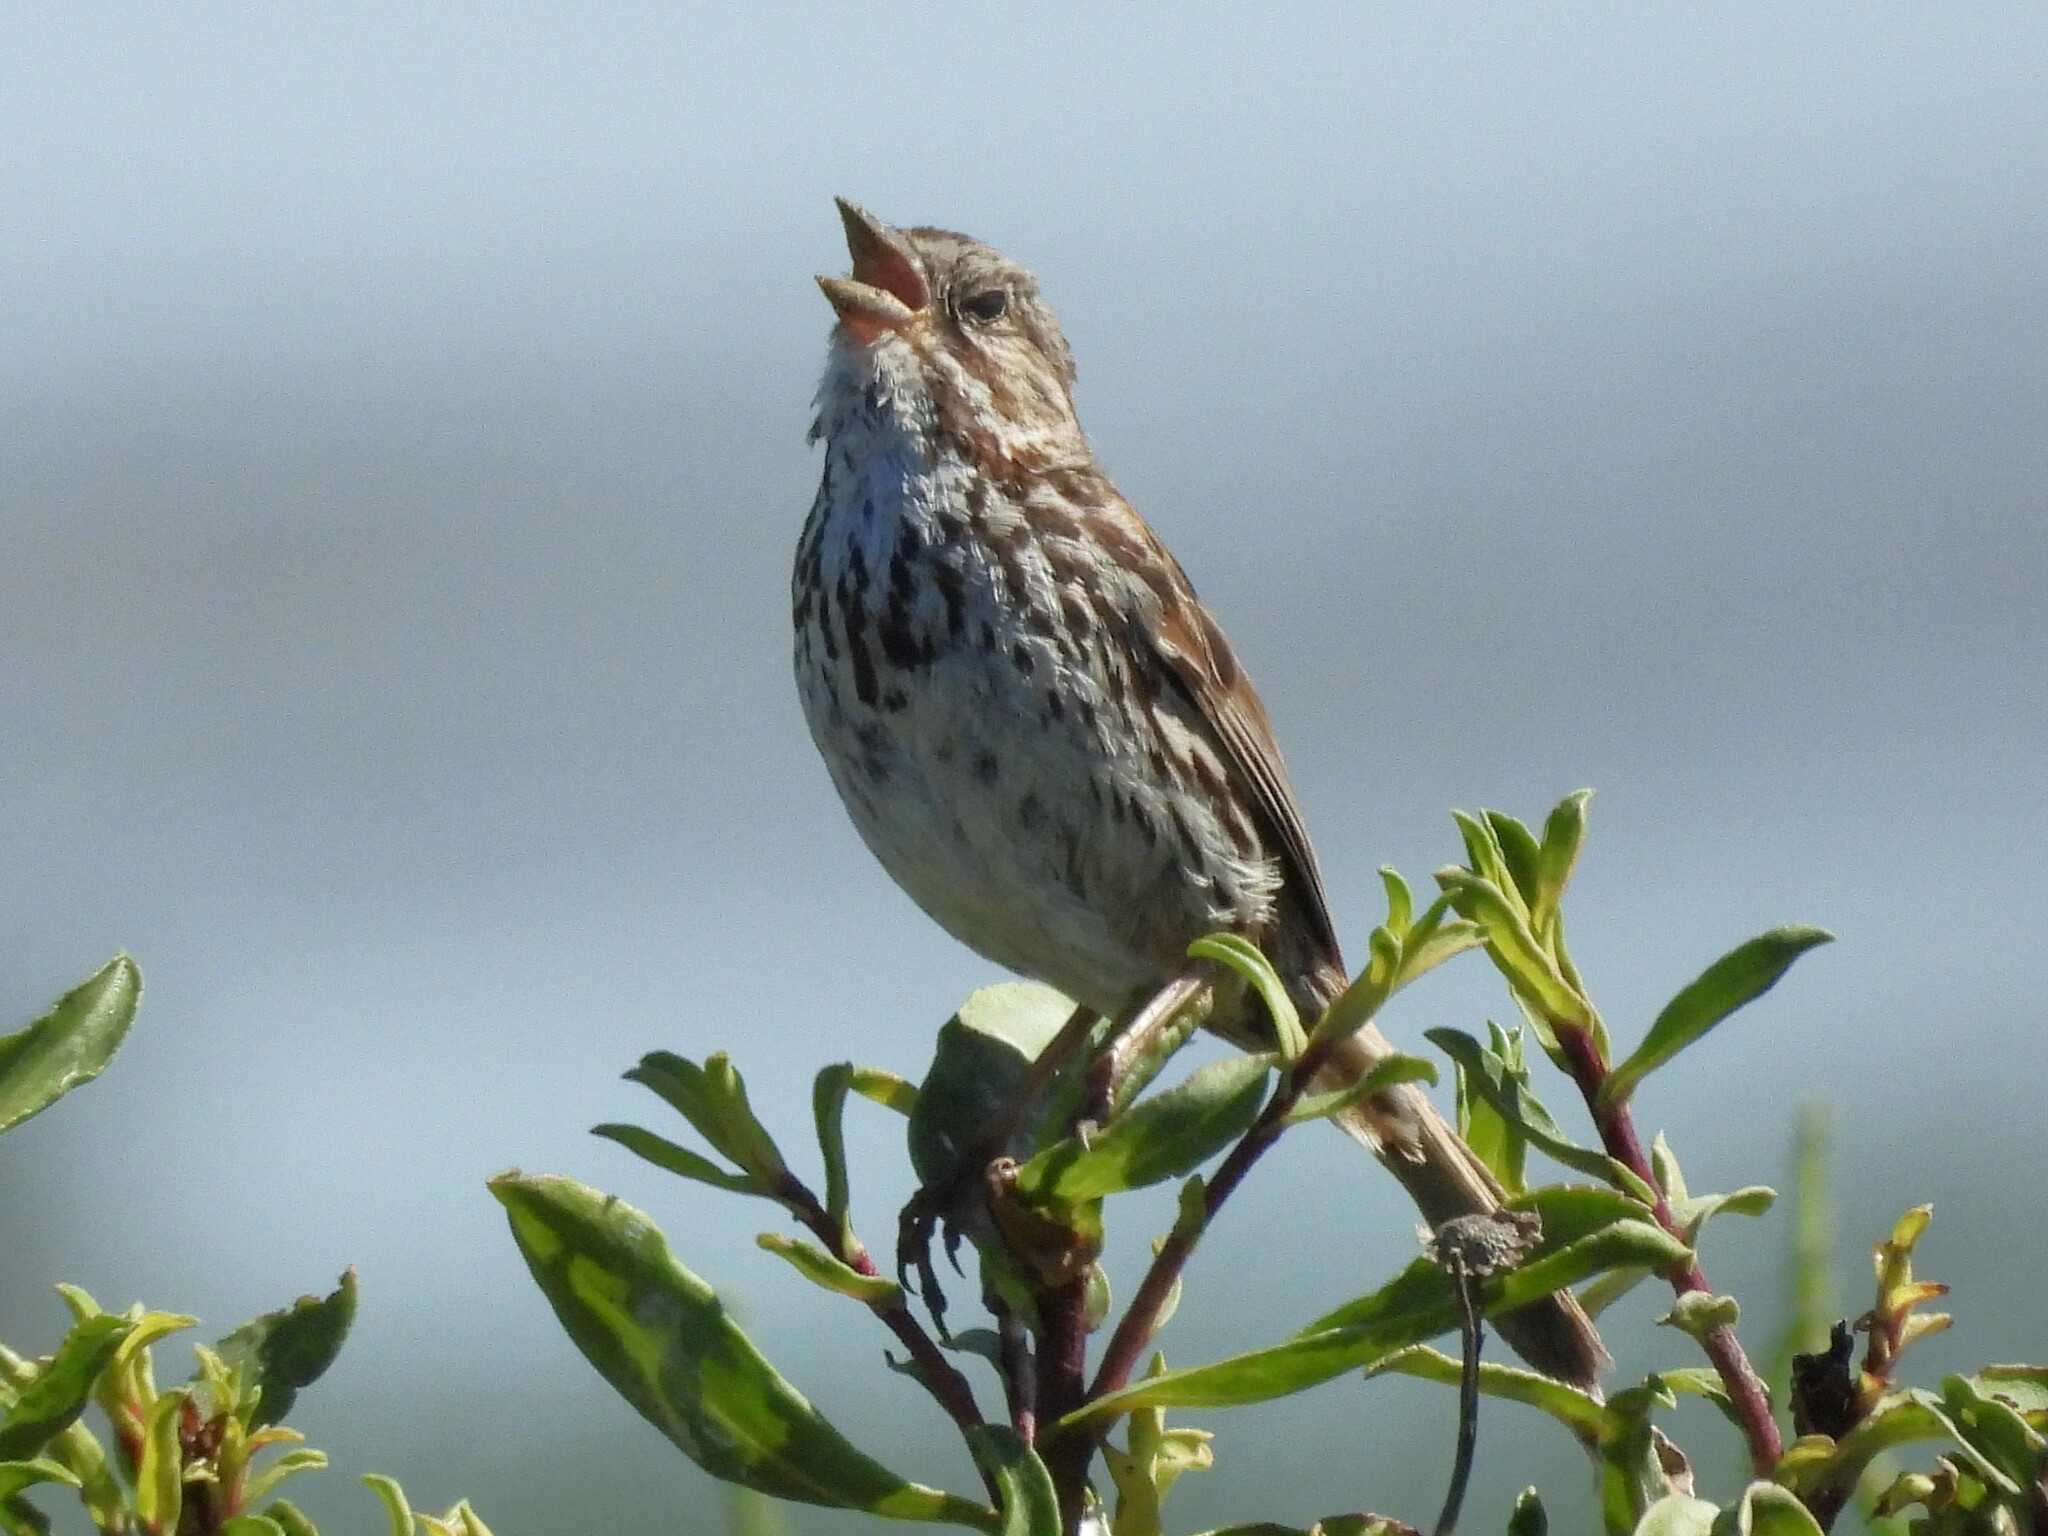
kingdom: Animalia
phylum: Chordata
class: Aves
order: Passeriformes
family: Passerellidae
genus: Melospiza
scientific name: Melospiza melodia
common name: Song sparrow
